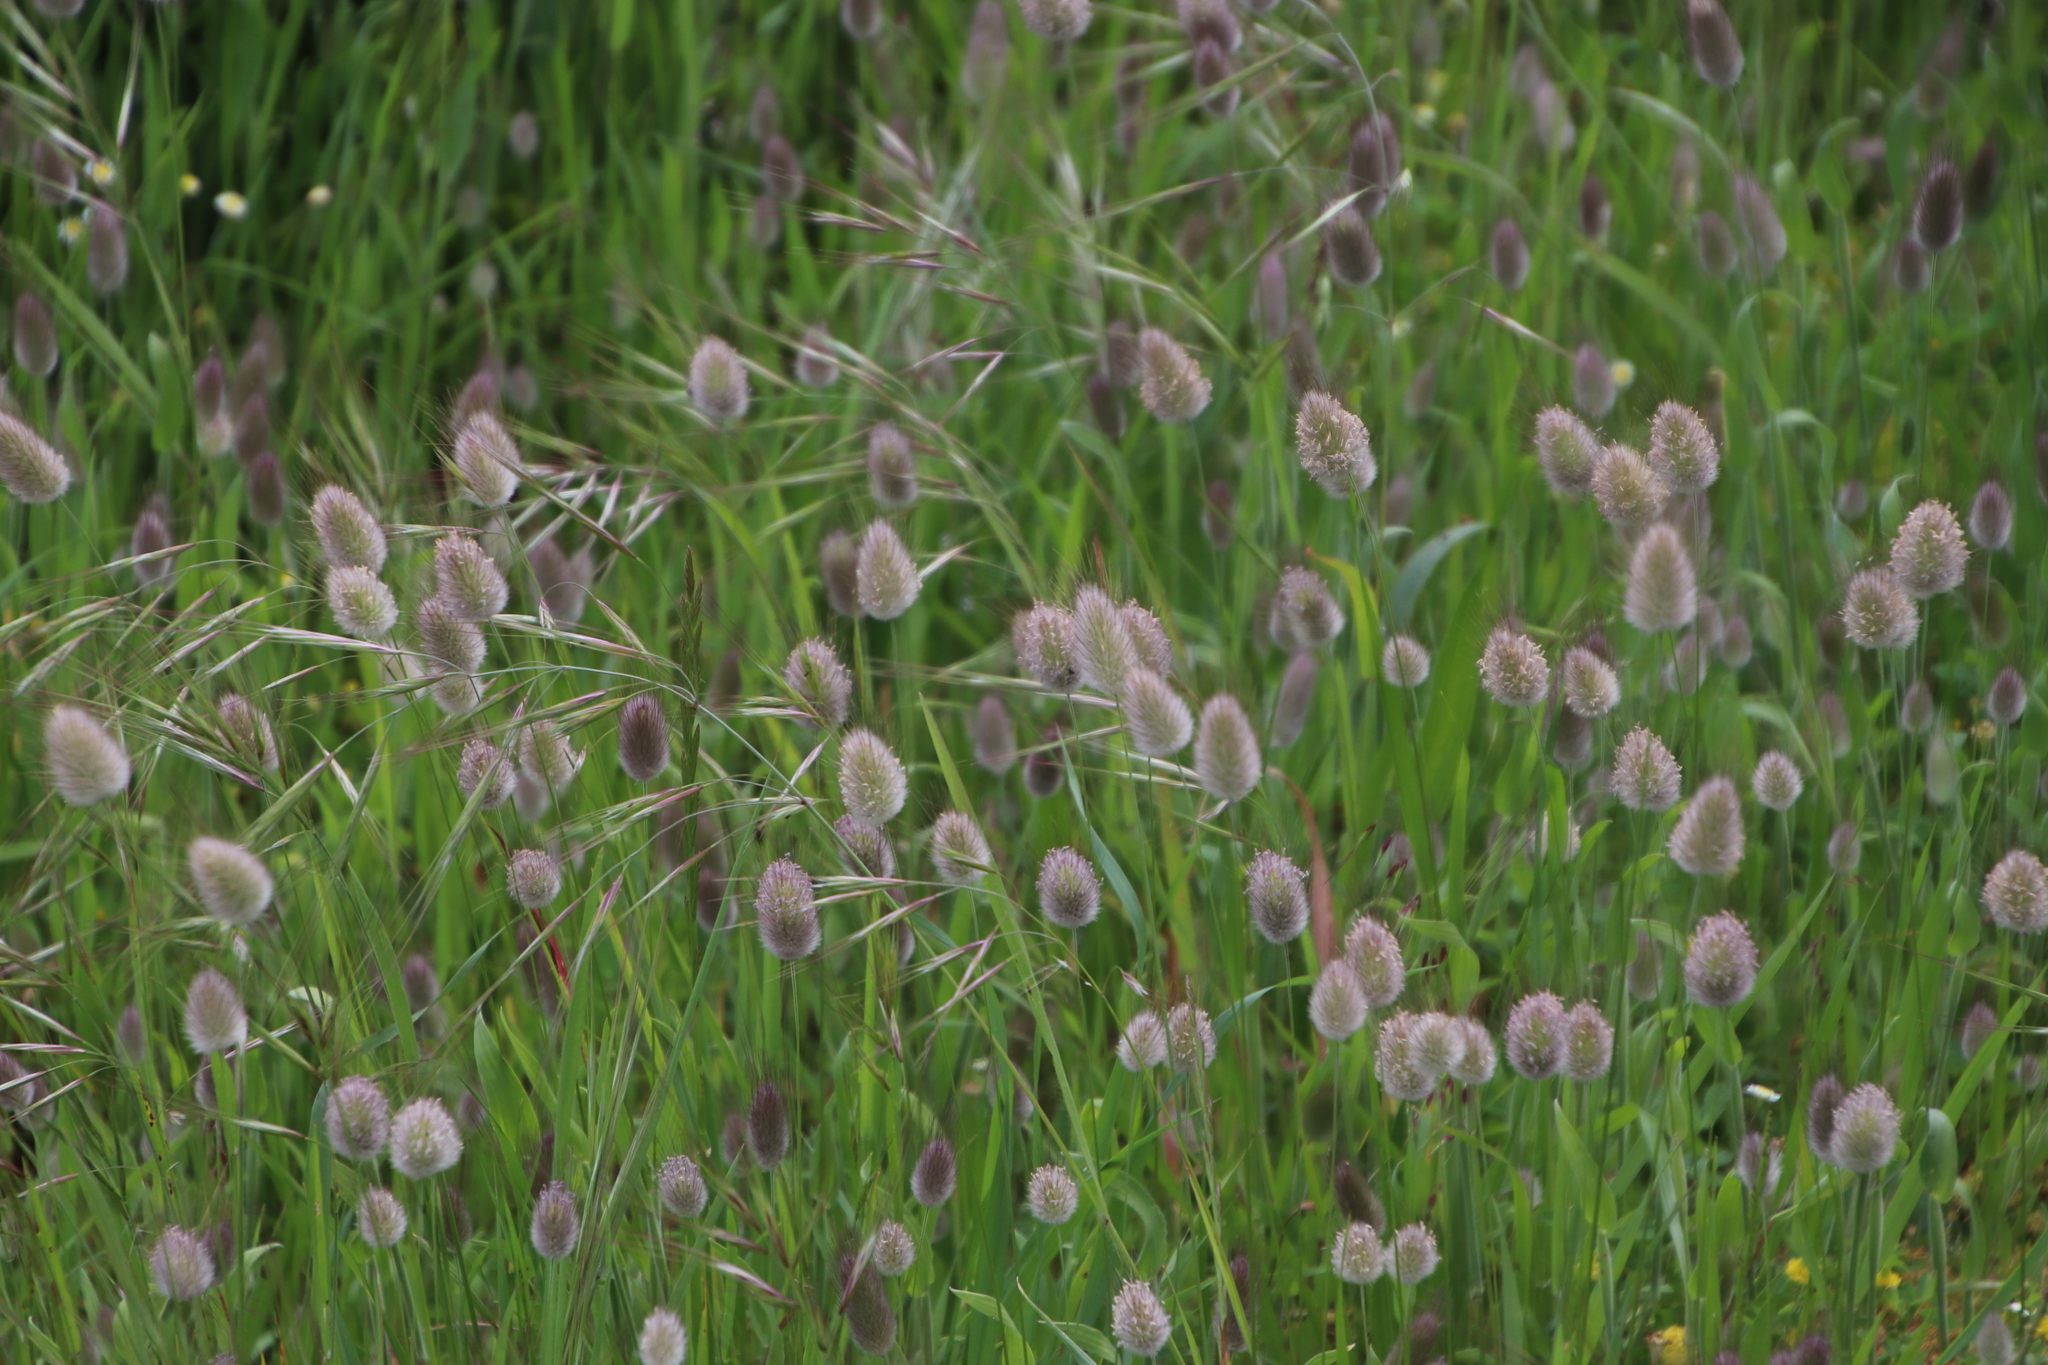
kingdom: Plantae
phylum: Tracheophyta
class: Liliopsida
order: Poales
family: Poaceae
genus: Lagurus
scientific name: Lagurus ovatus
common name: Hare's-tail
